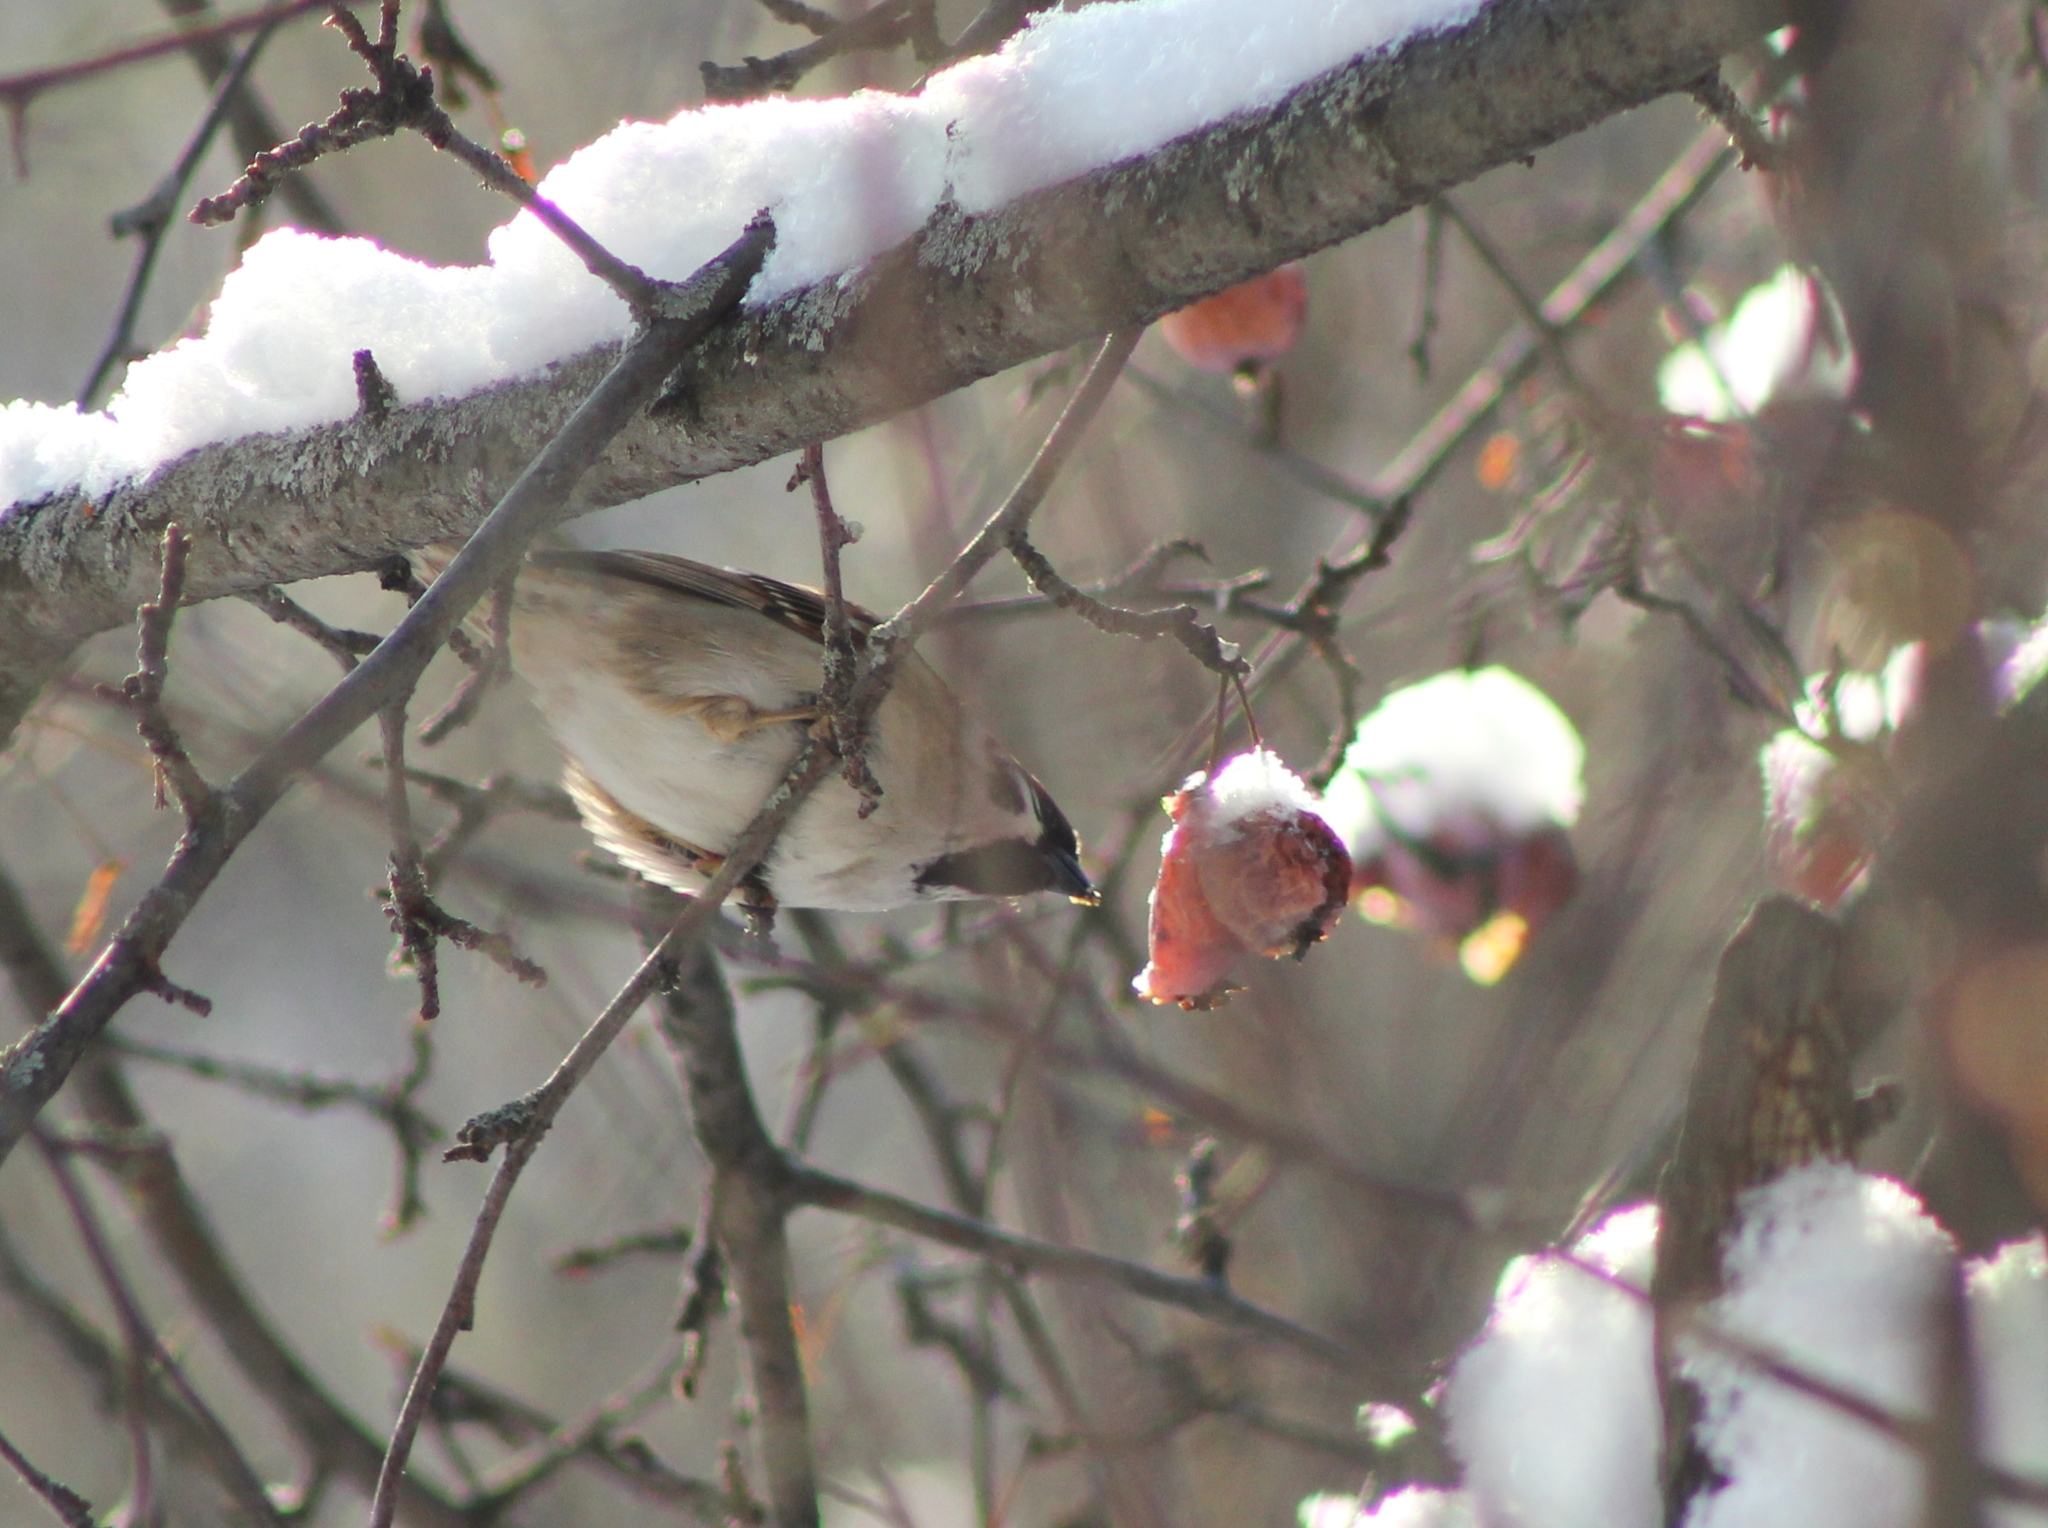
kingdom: Animalia
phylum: Chordata
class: Aves
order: Passeriformes
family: Passeridae
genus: Passer
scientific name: Passer montanus
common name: Eurasian tree sparrow
